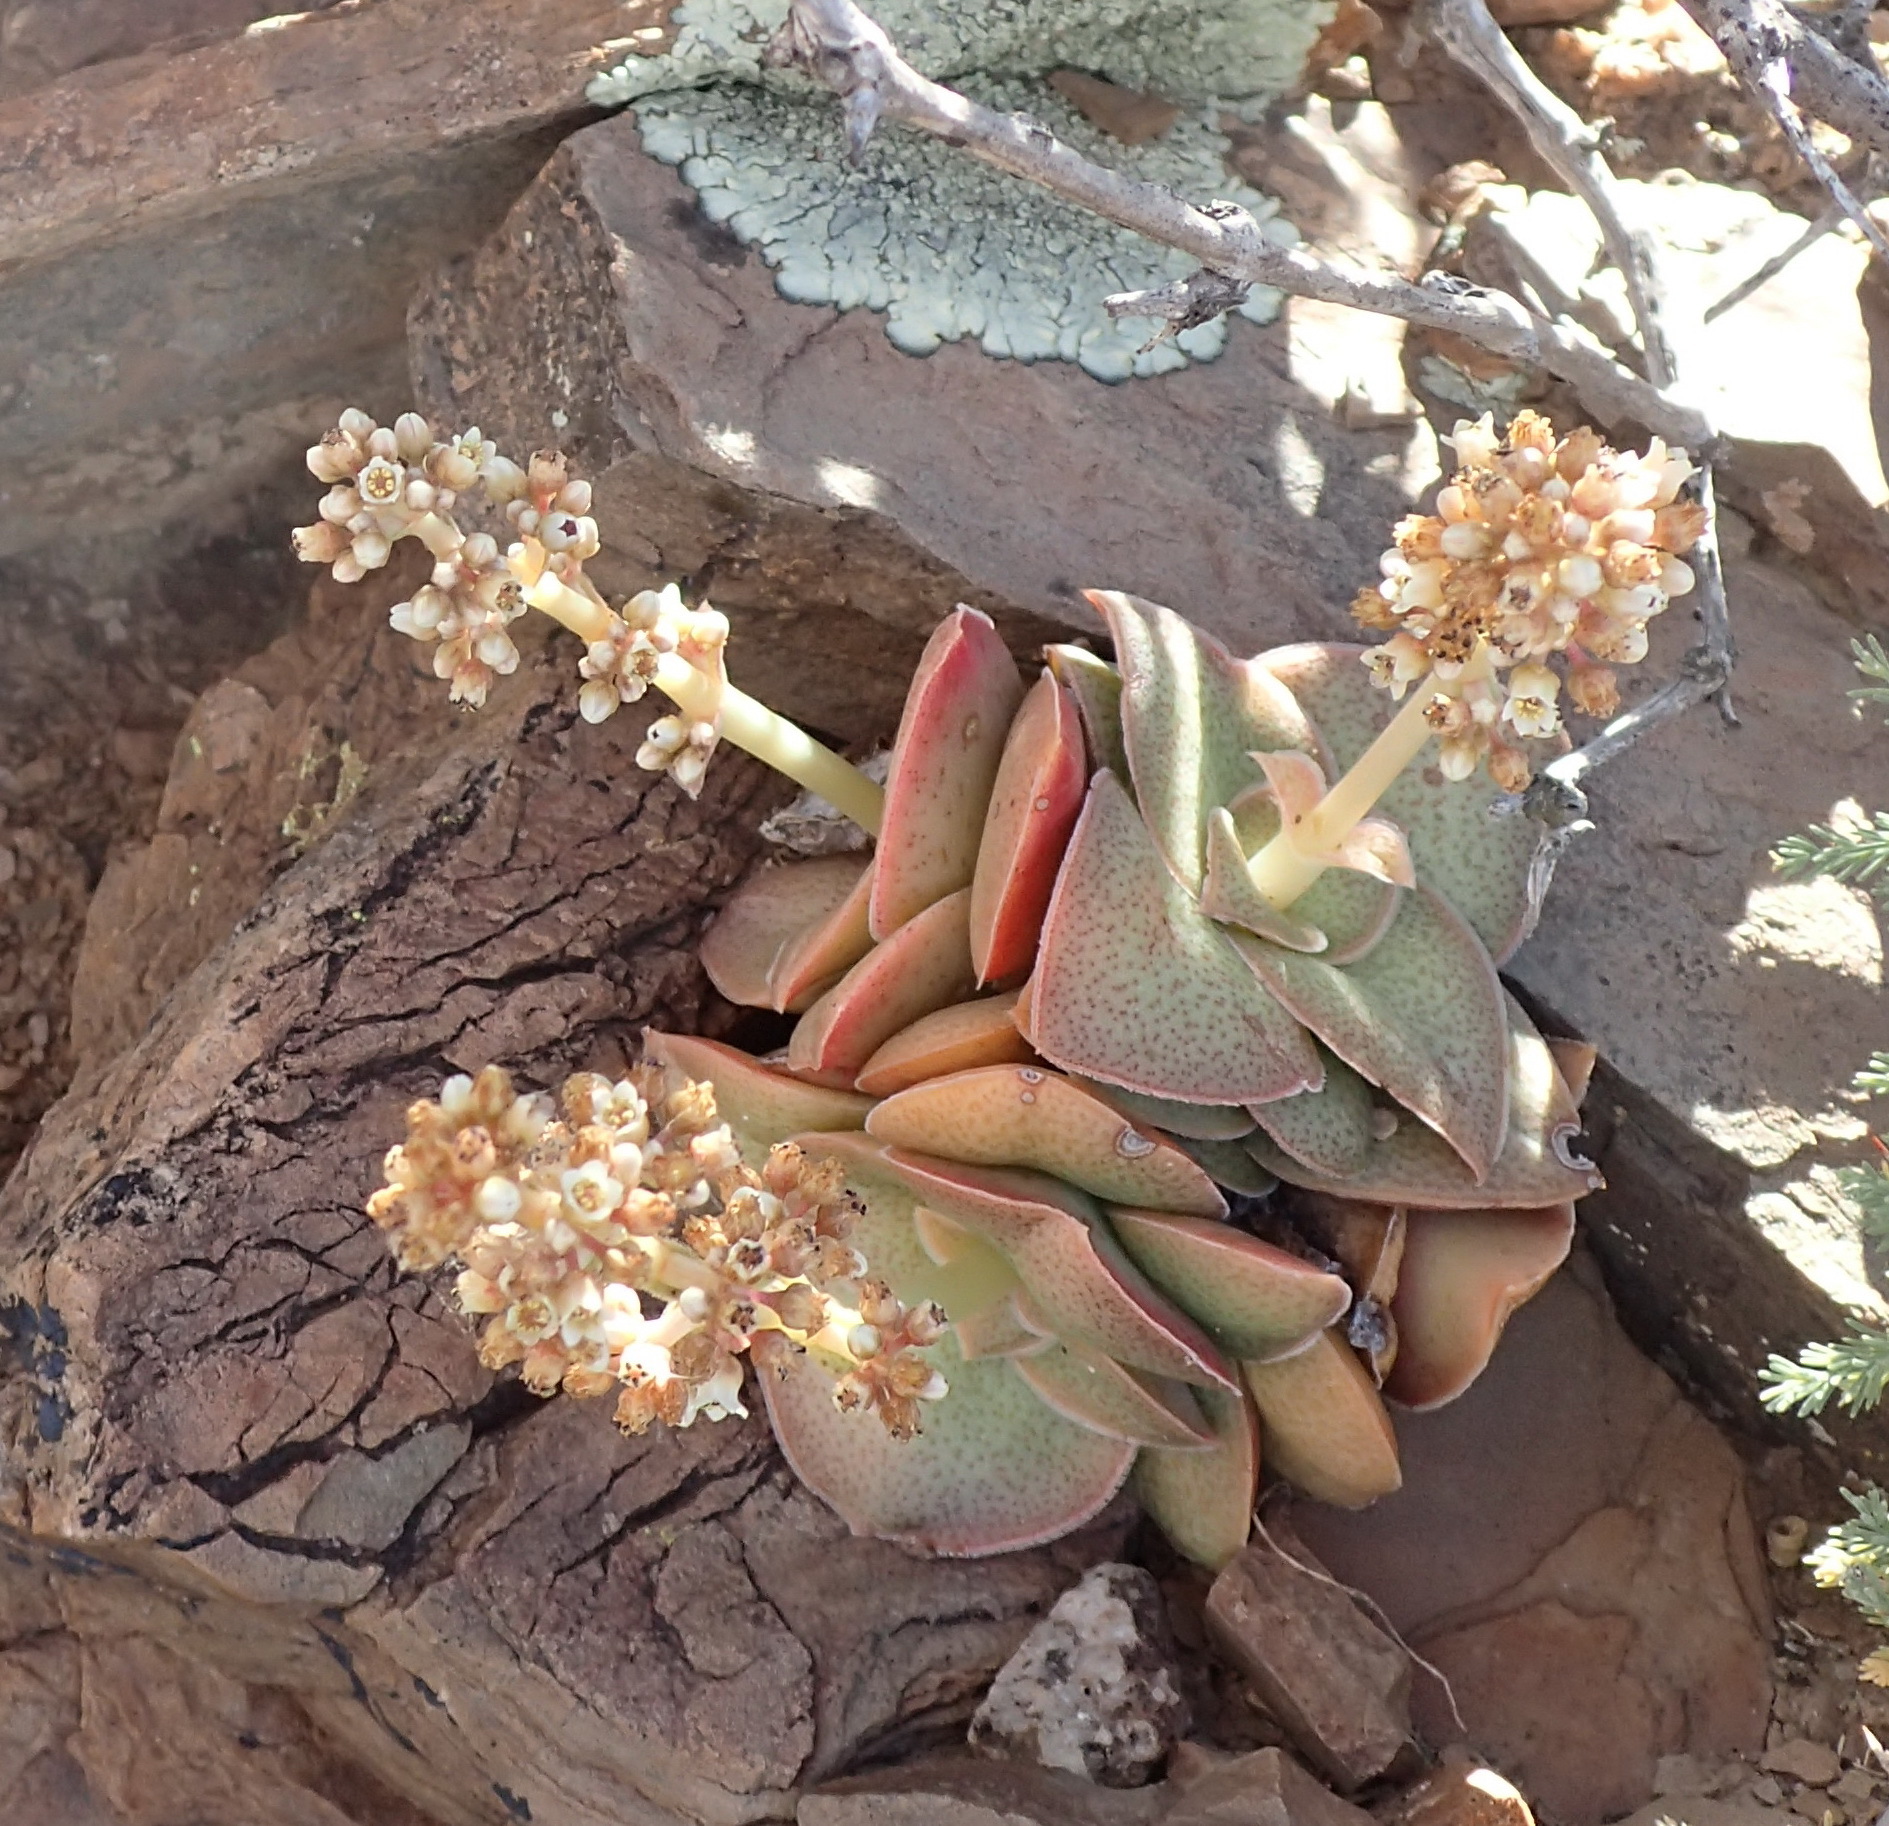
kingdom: Plantae
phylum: Tracheophyta
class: Magnoliopsida
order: Saxifragales
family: Crassulaceae
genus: Crassula
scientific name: Crassula montana
